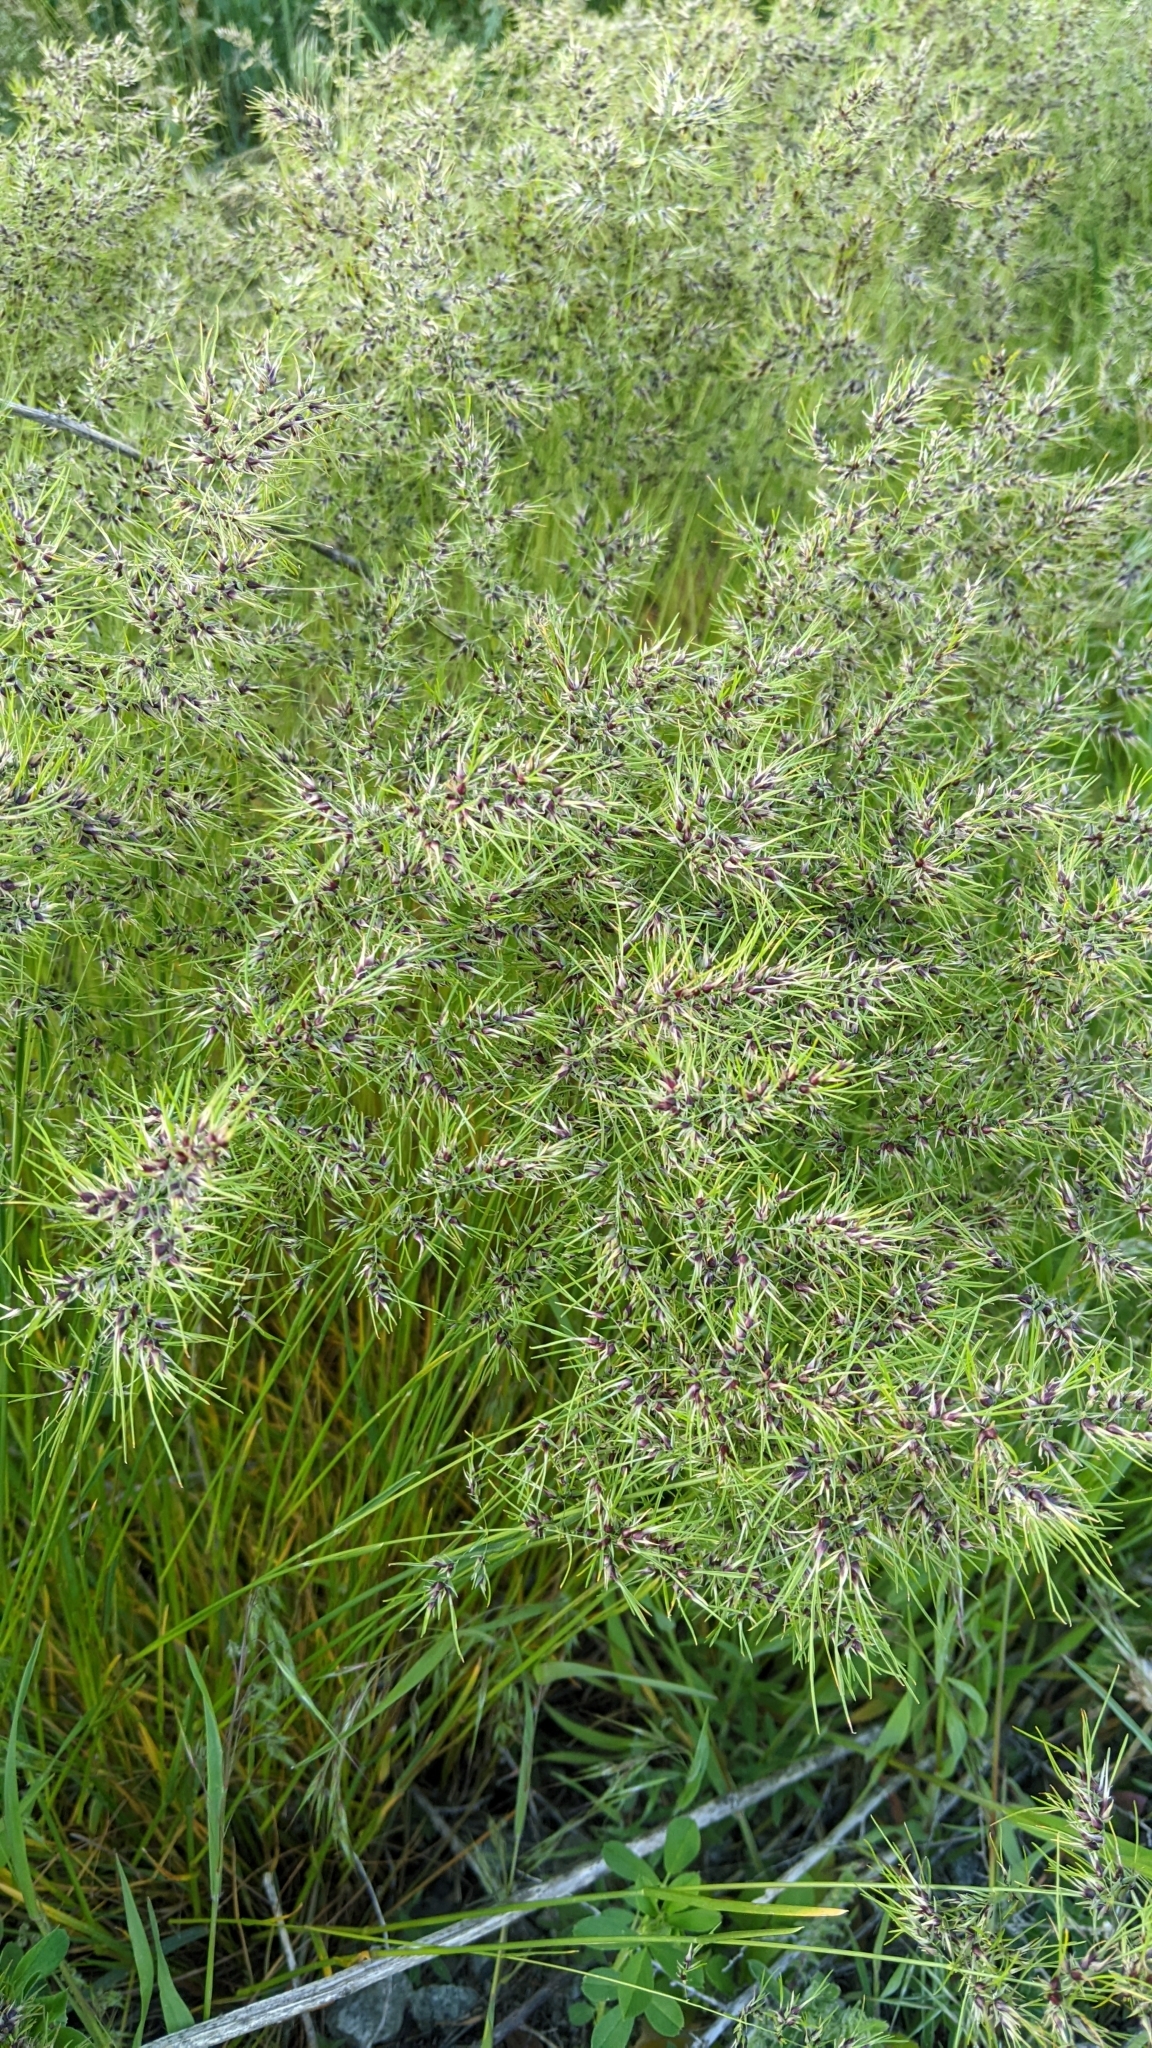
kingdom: Plantae
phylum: Tracheophyta
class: Liliopsida
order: Poales
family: Poaceae
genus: Poa
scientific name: Poa bulbosa
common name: Bulbous bluegrass
